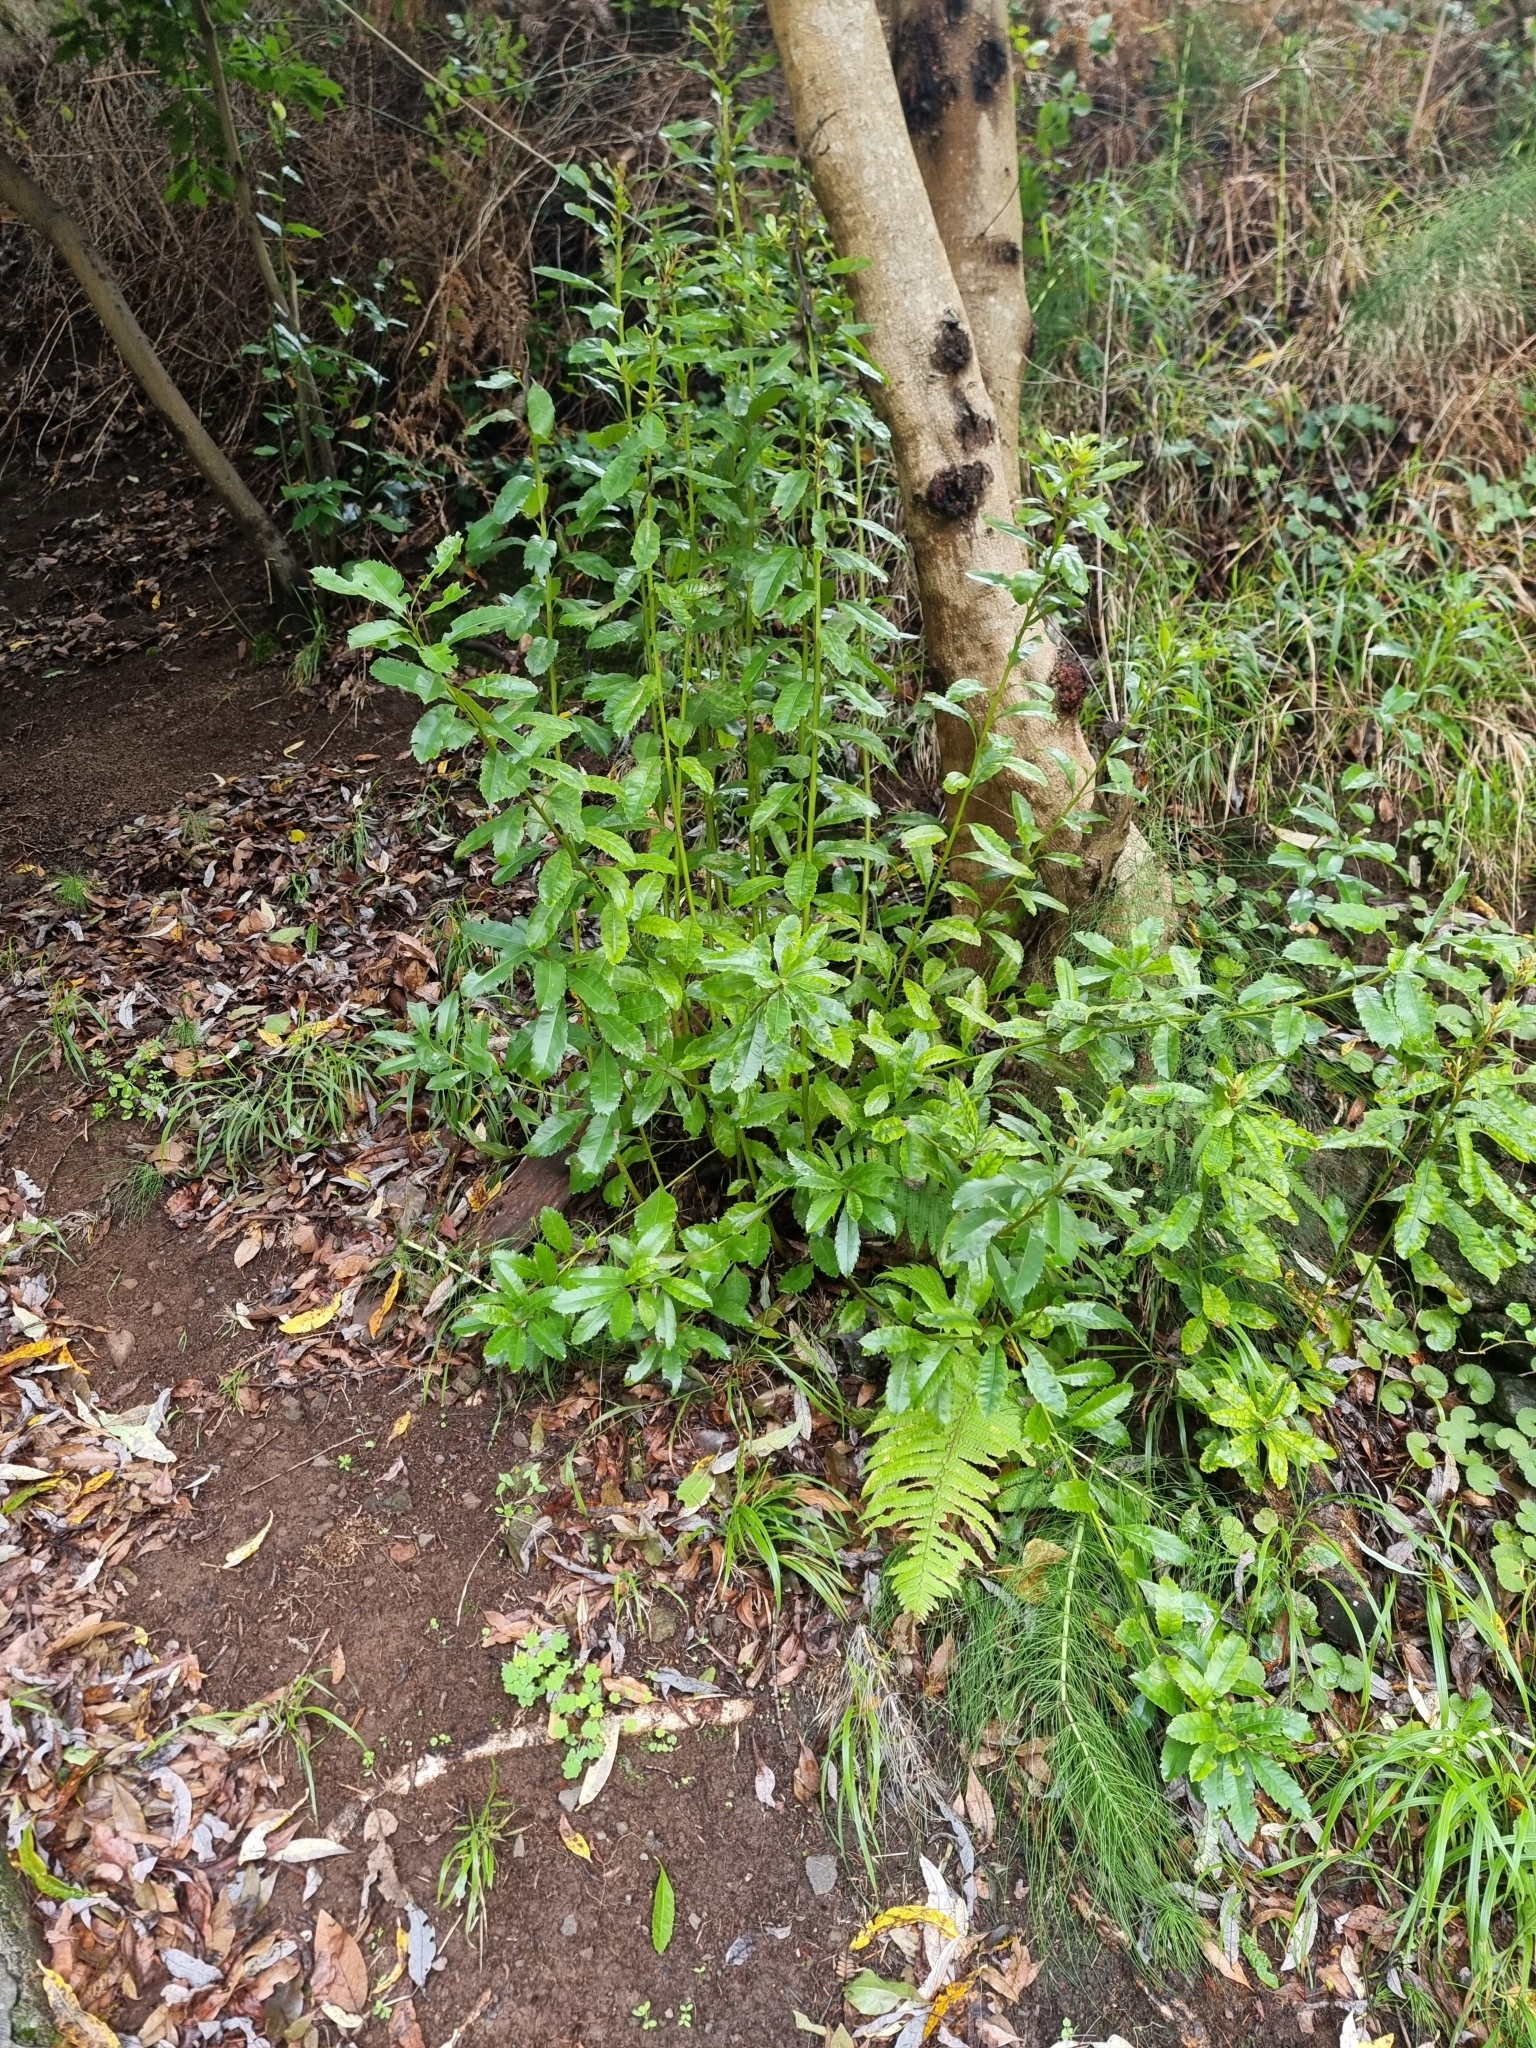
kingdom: Plantae
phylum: Tracheophyta
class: Magnoliopsida
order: Fagales
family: Myricaceae
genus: Morella
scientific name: Morella faya
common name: Firetree
